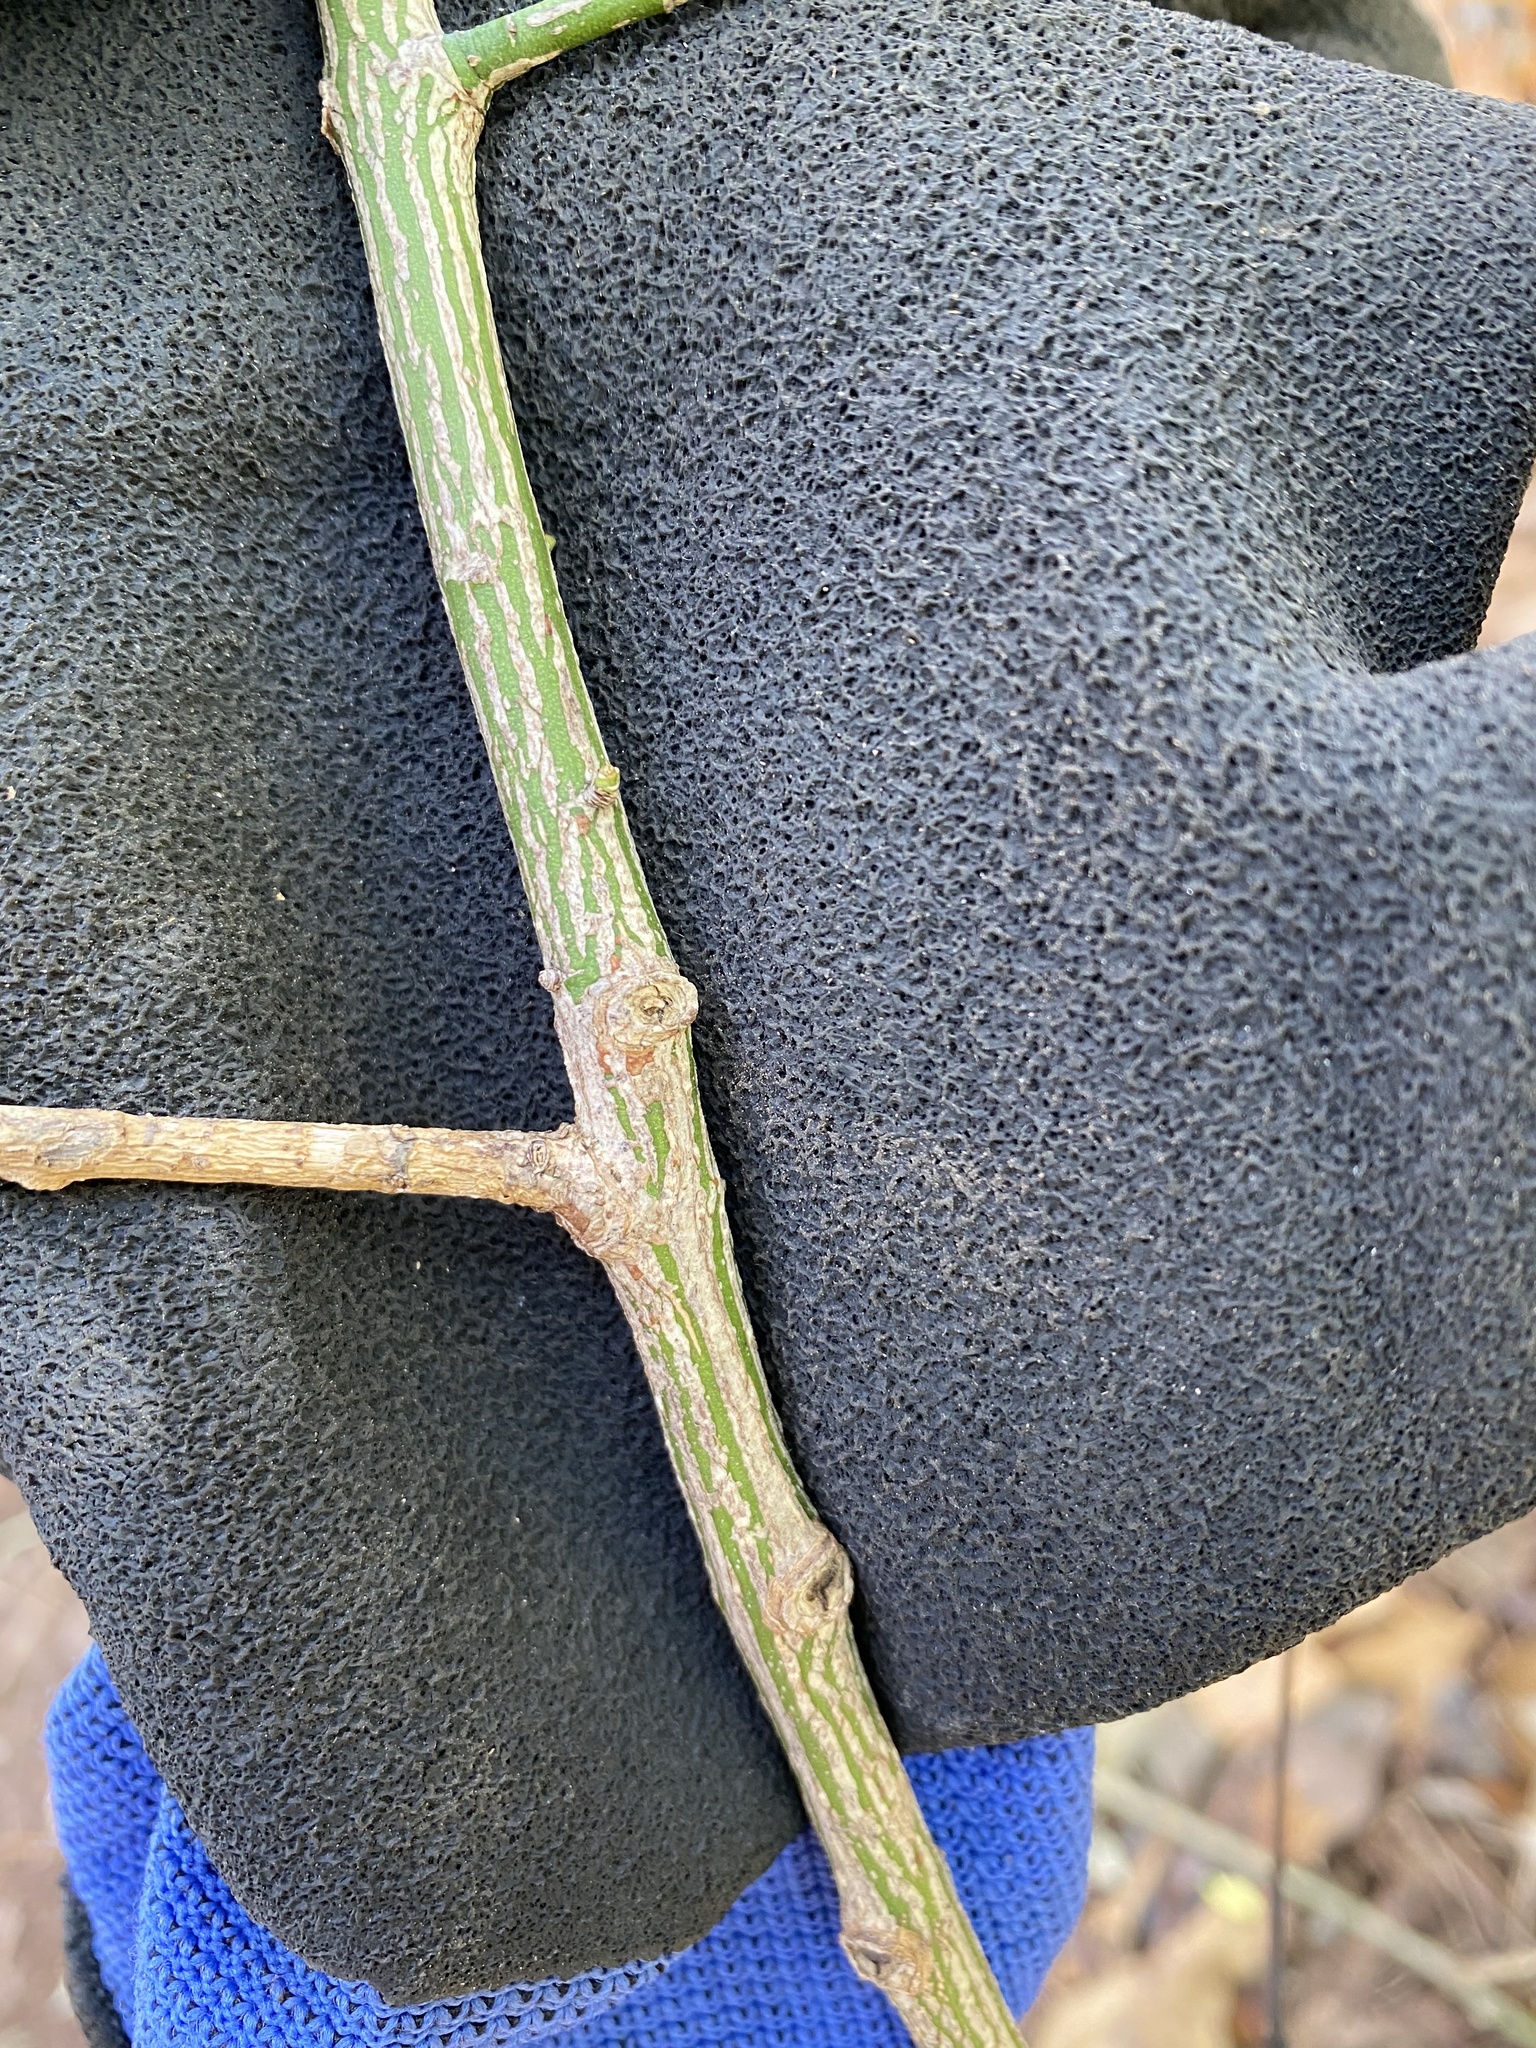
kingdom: Plantae
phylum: Tracheophyta
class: Magnoliopsida
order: Celastrales
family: Celastraceae
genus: Euonymus
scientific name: Euonymus alatus
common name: Winged euonymus
